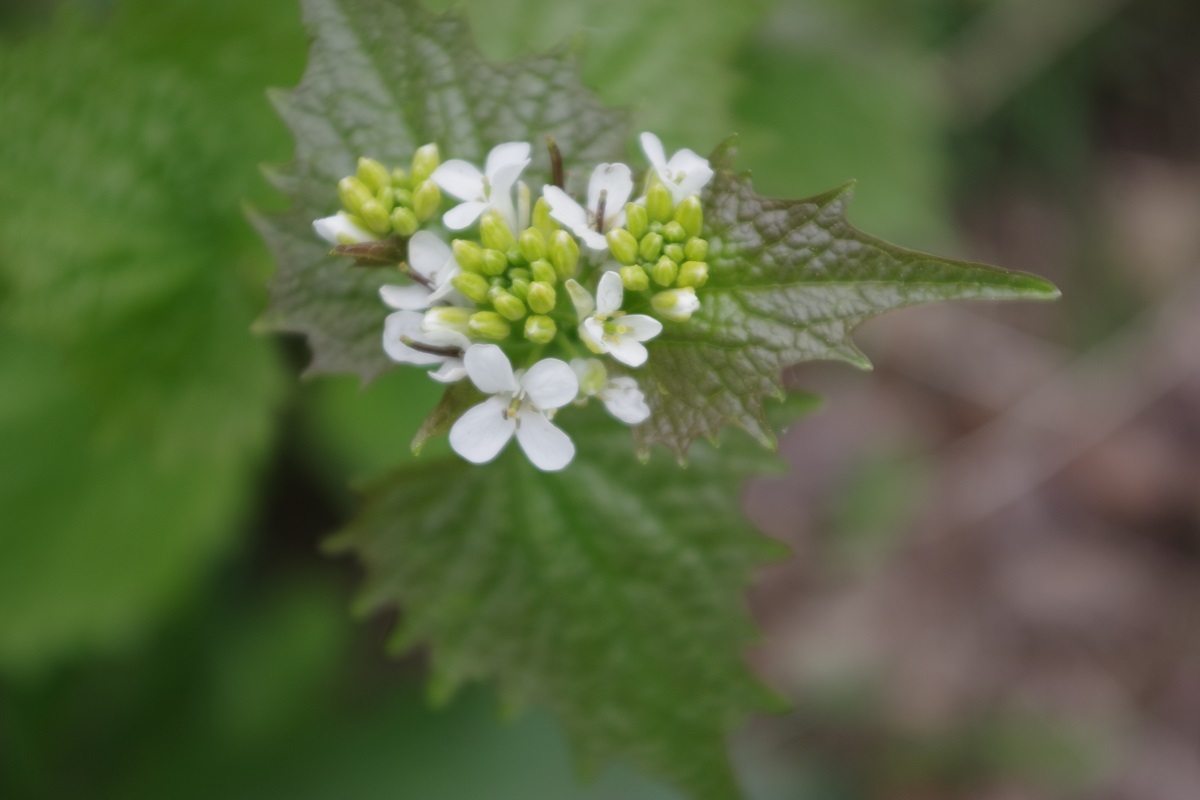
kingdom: Plantae
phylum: Tracheophyta
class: Magnoliopsida
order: Brassicales
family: Brassicaceae
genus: Alliaria
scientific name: Alliaria petiolata
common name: Garlic mustard
